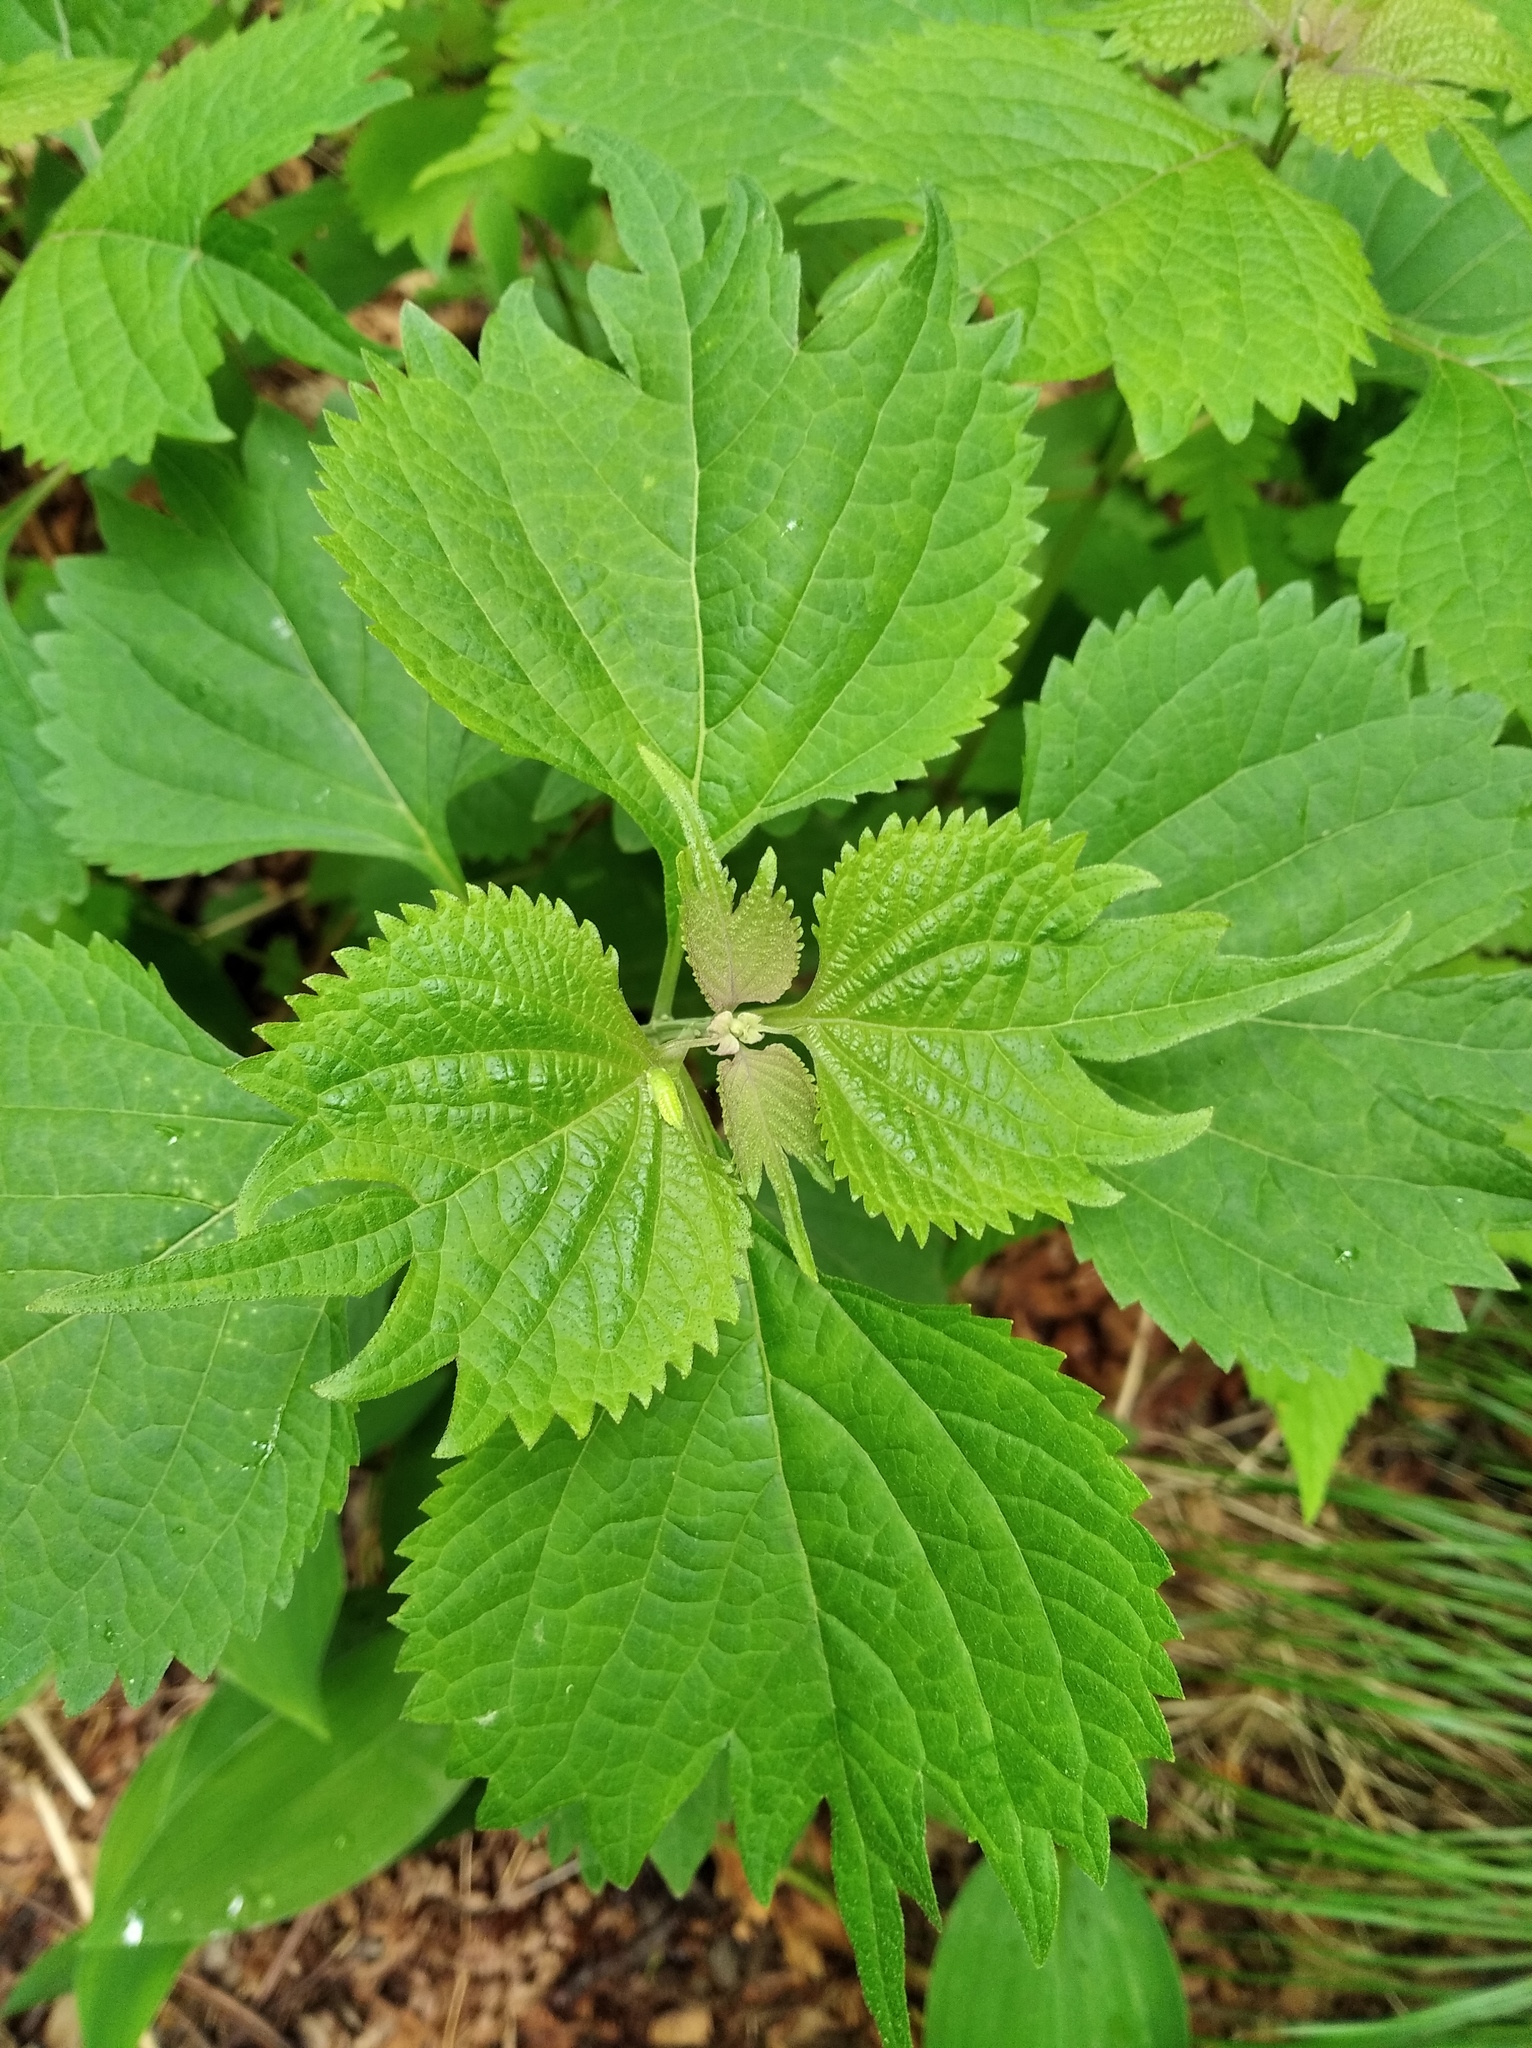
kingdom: Plantae
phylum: Tracheophyta
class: Magnoliopsida
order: Lamiales
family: Lamiaceae
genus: Isodon
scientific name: Isodon excisus
